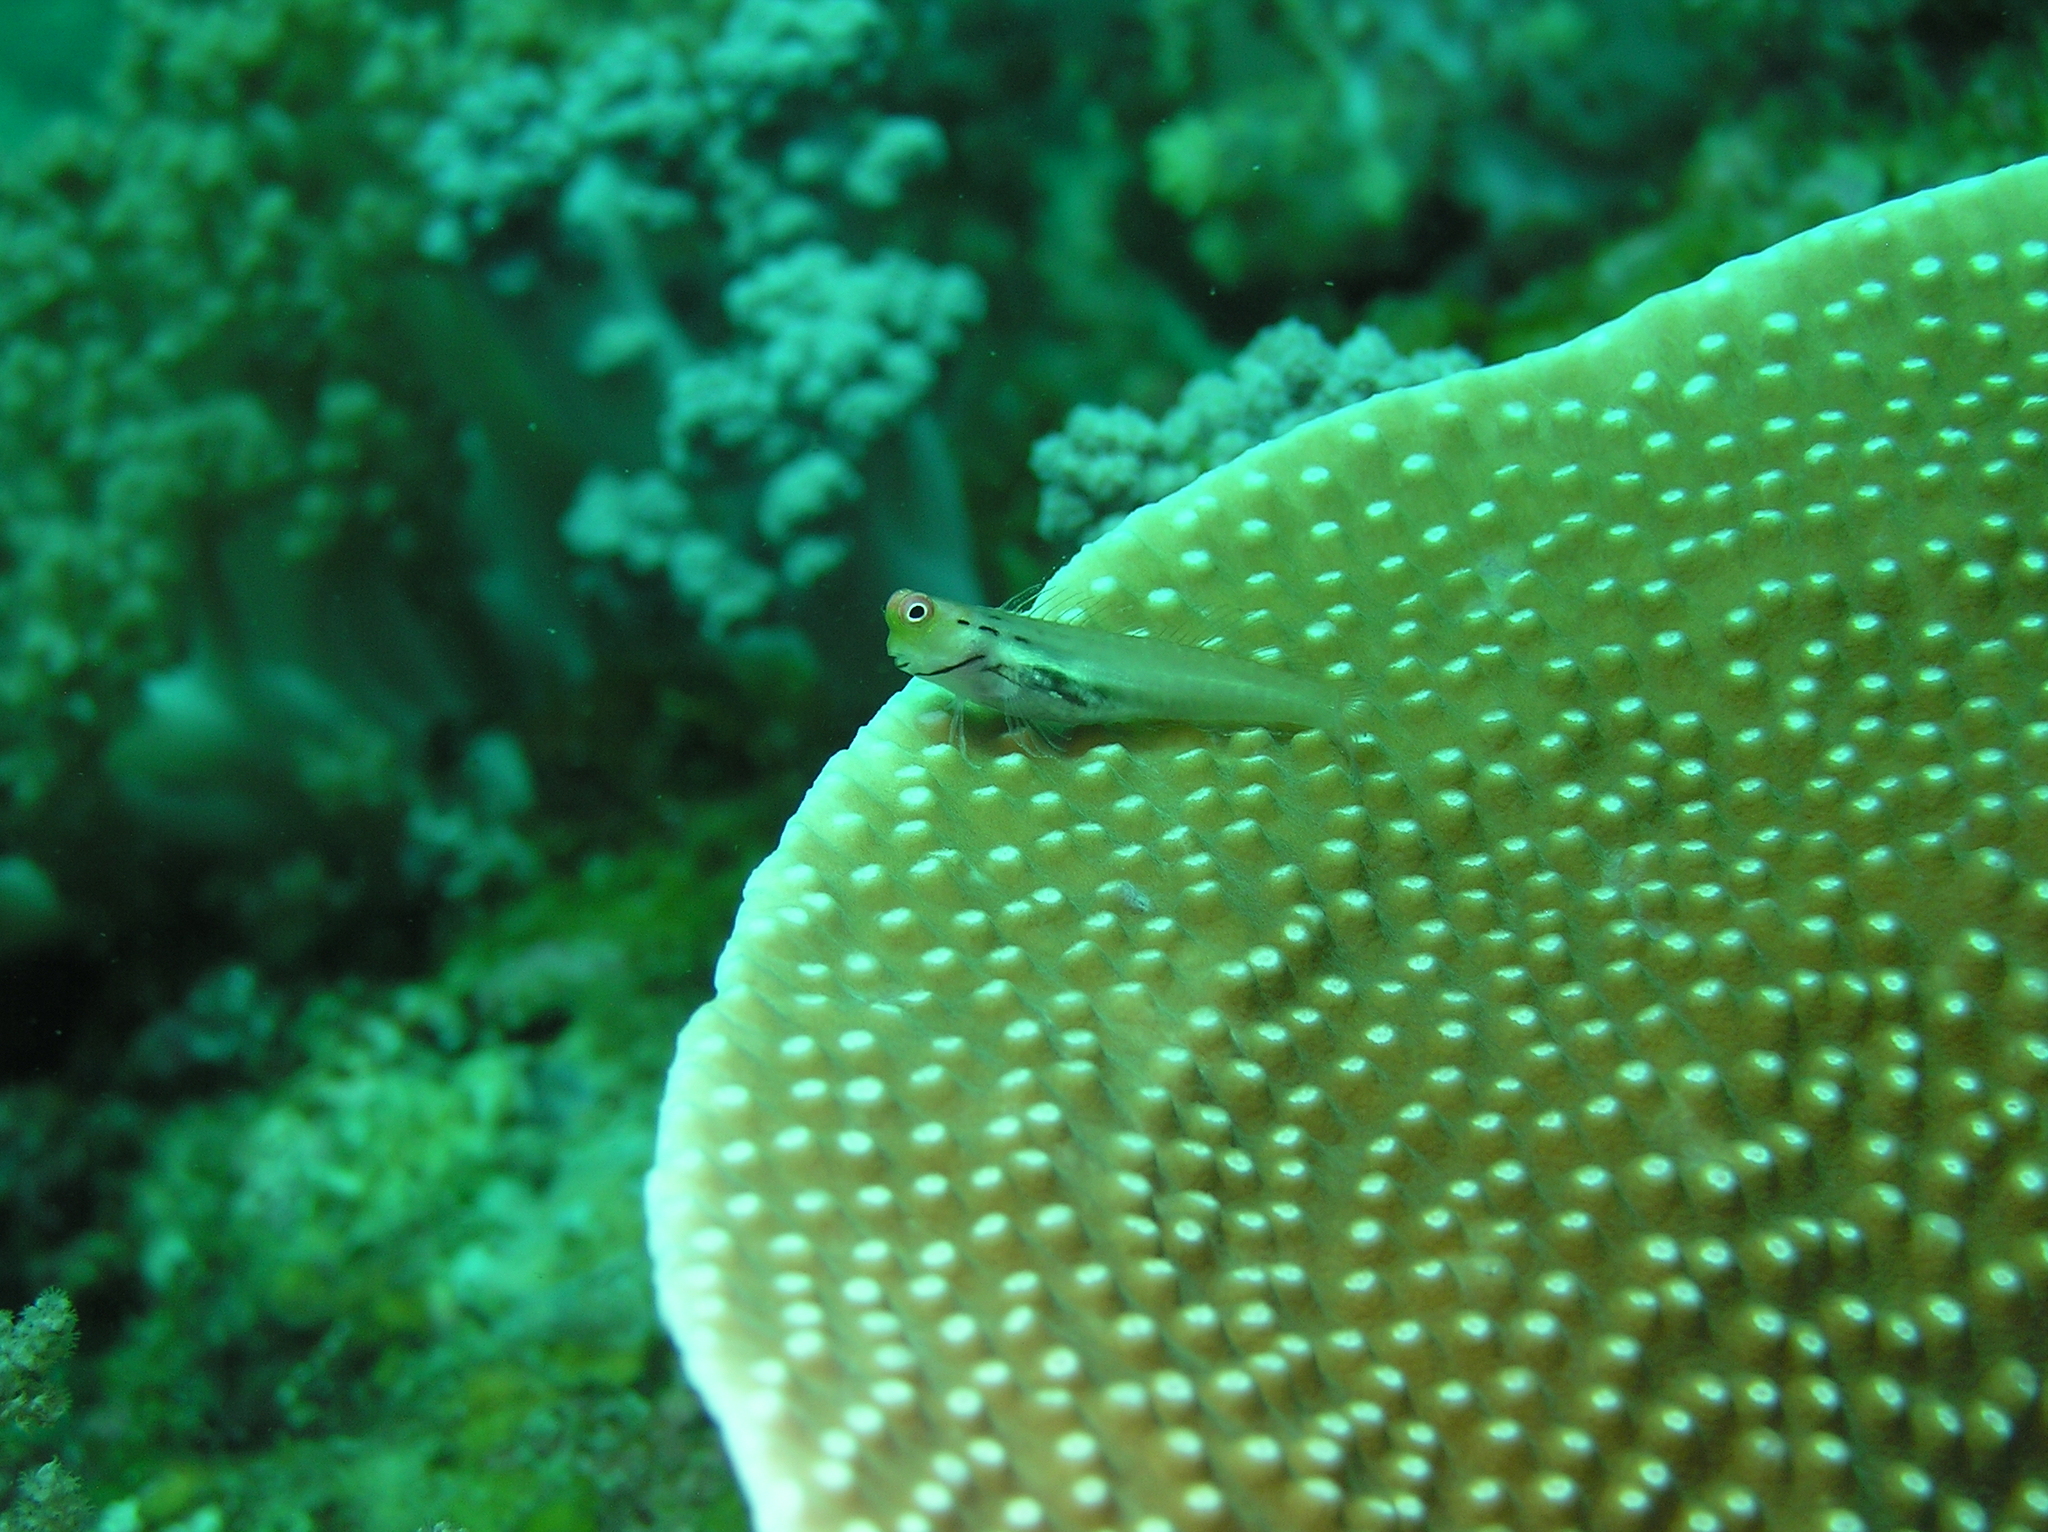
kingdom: Animalia
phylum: Chordata
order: Perciformes
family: Blenniidae
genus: Ecsenius
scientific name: Ecsenius yaeyamaensis
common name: Pale-spotted combtooth-blenny
